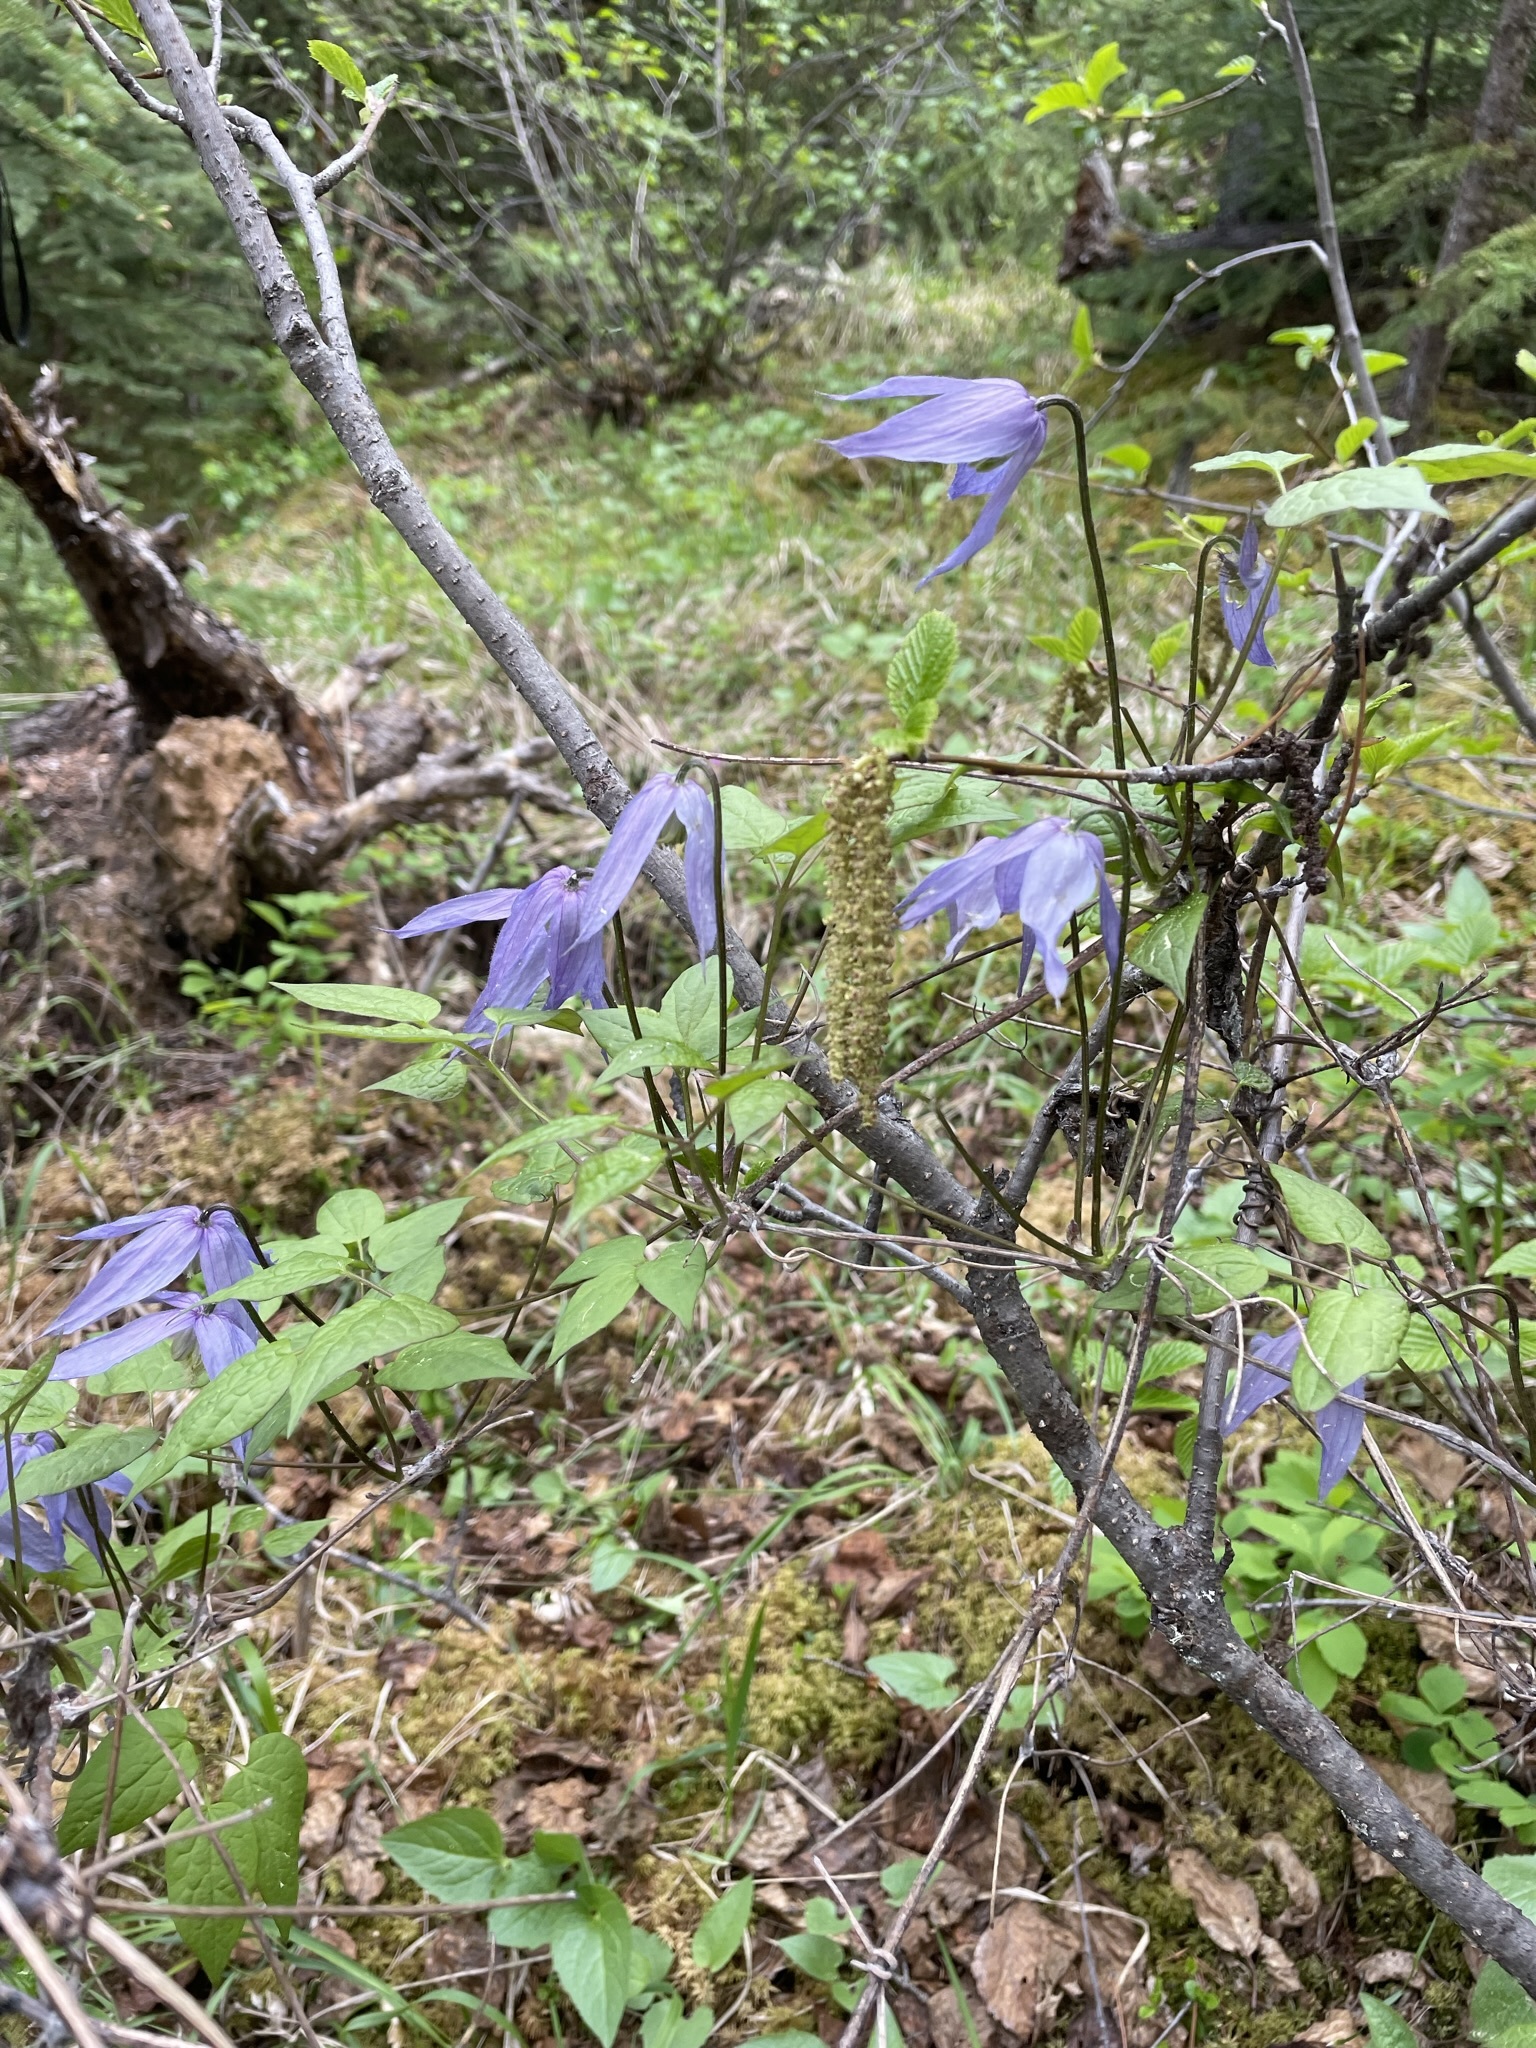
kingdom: Plantae
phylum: Tracheophyta
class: Magnoliopsida
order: Ranunculales
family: Ranunculaceae
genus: Clematis
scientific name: Clematis occidentalis
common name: Purple clematis
